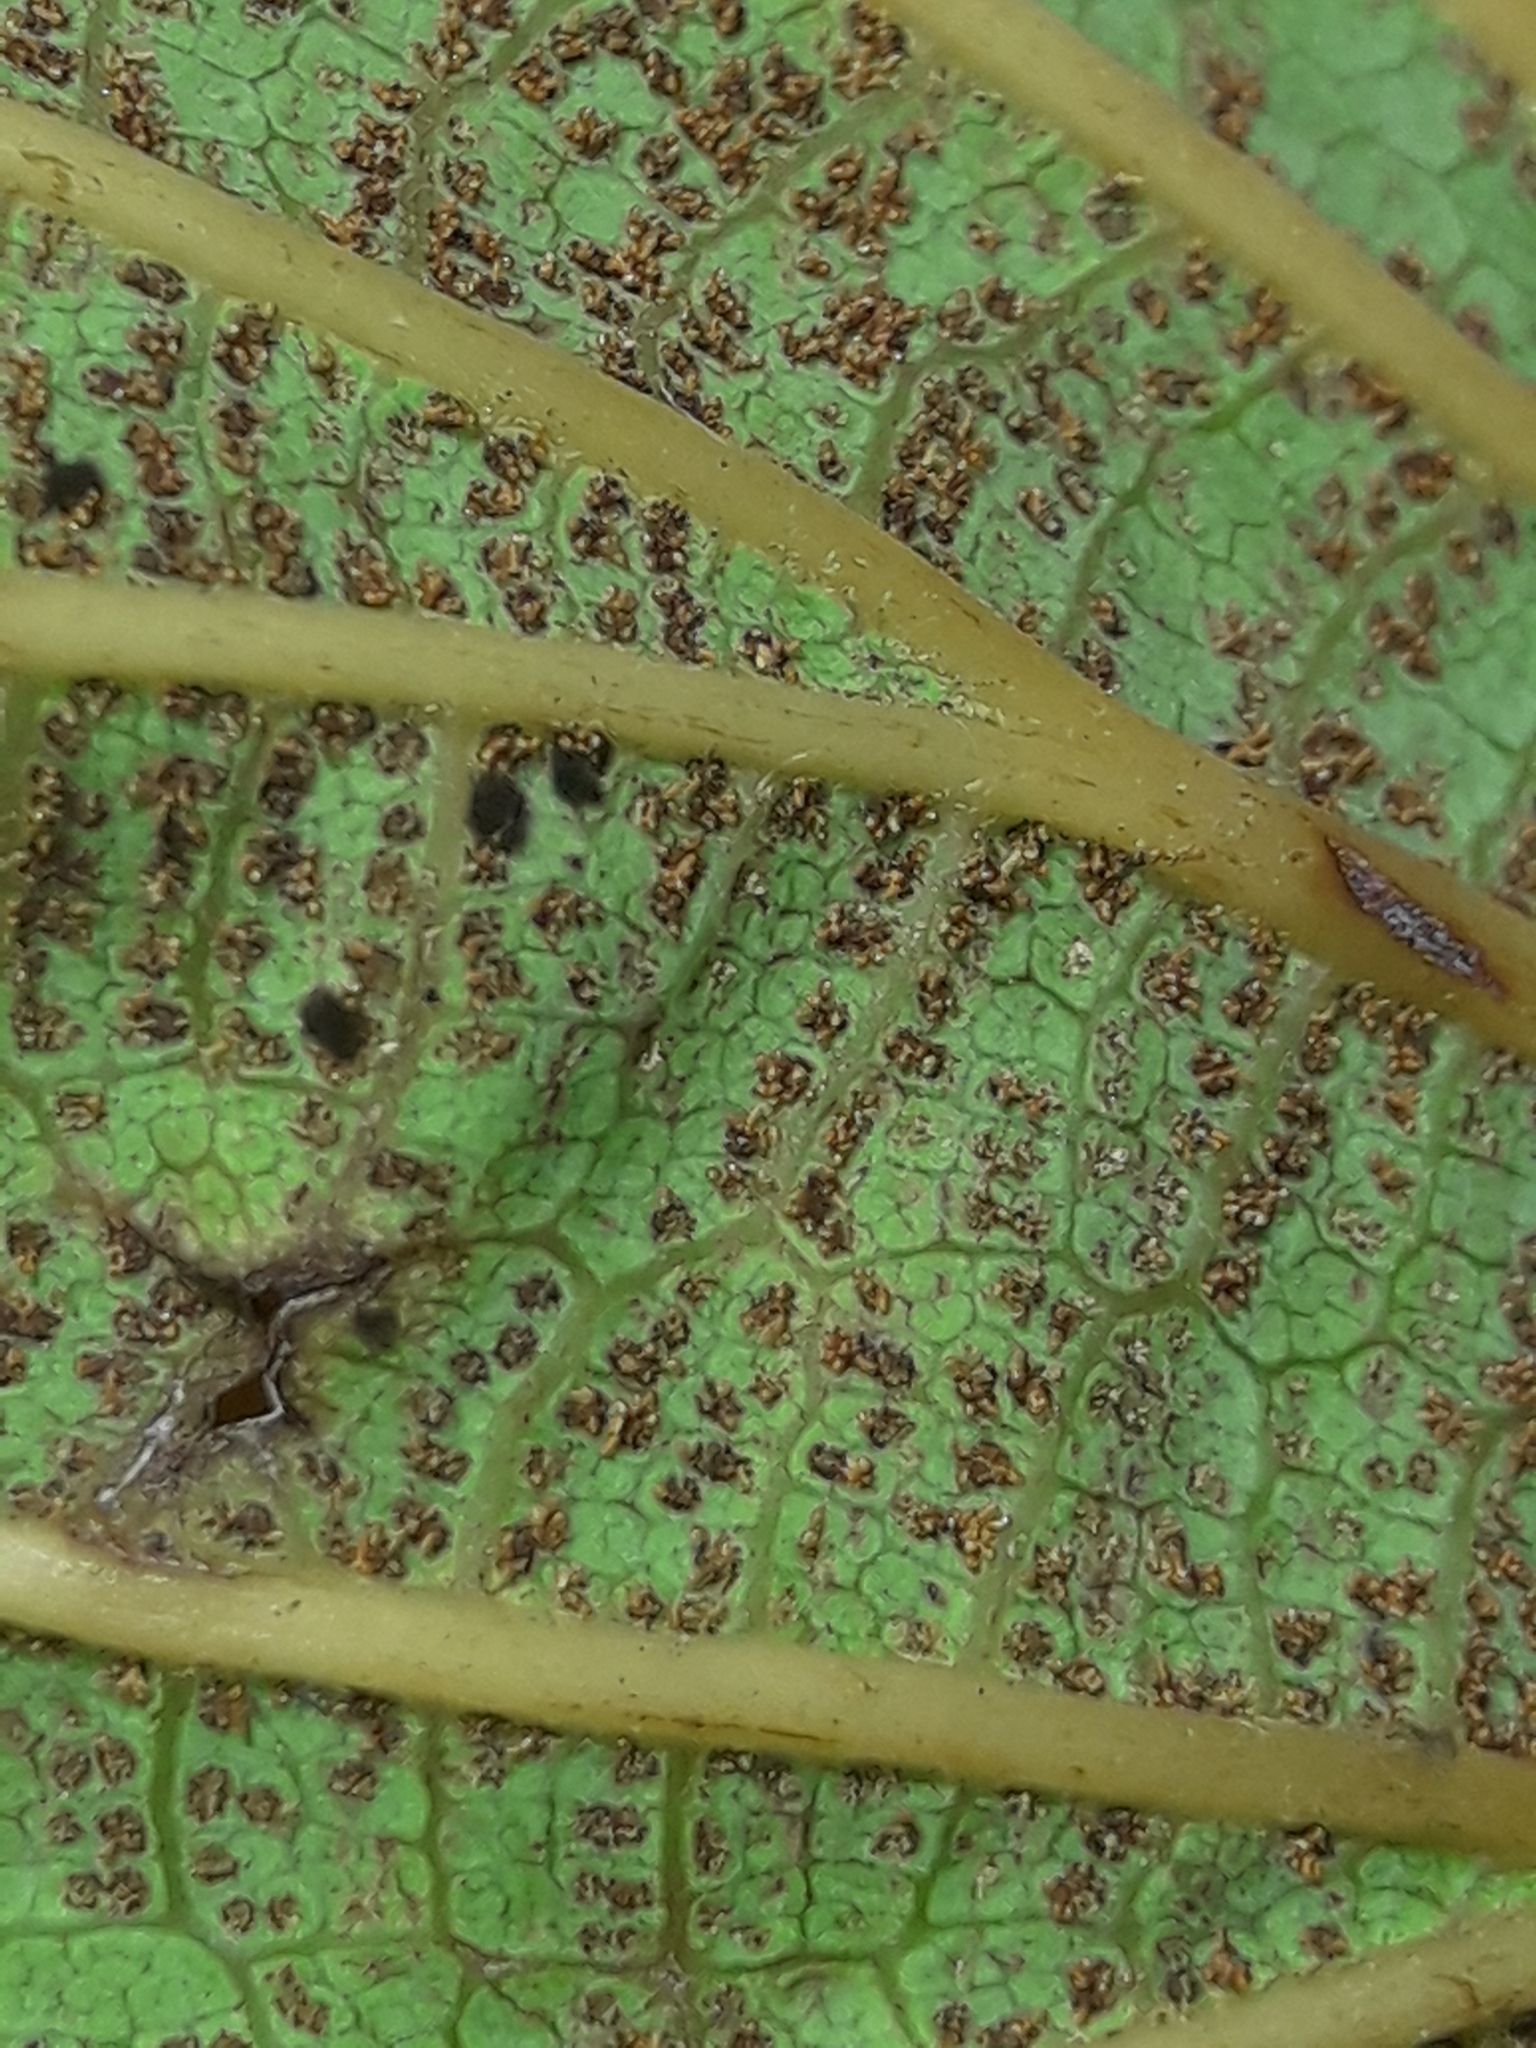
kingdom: Plantae
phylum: Tracheophyta
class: Polypodiopsida
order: Gleicheniales
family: Dipteridaceae
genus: Dipteris
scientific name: Dipteris conjugata
